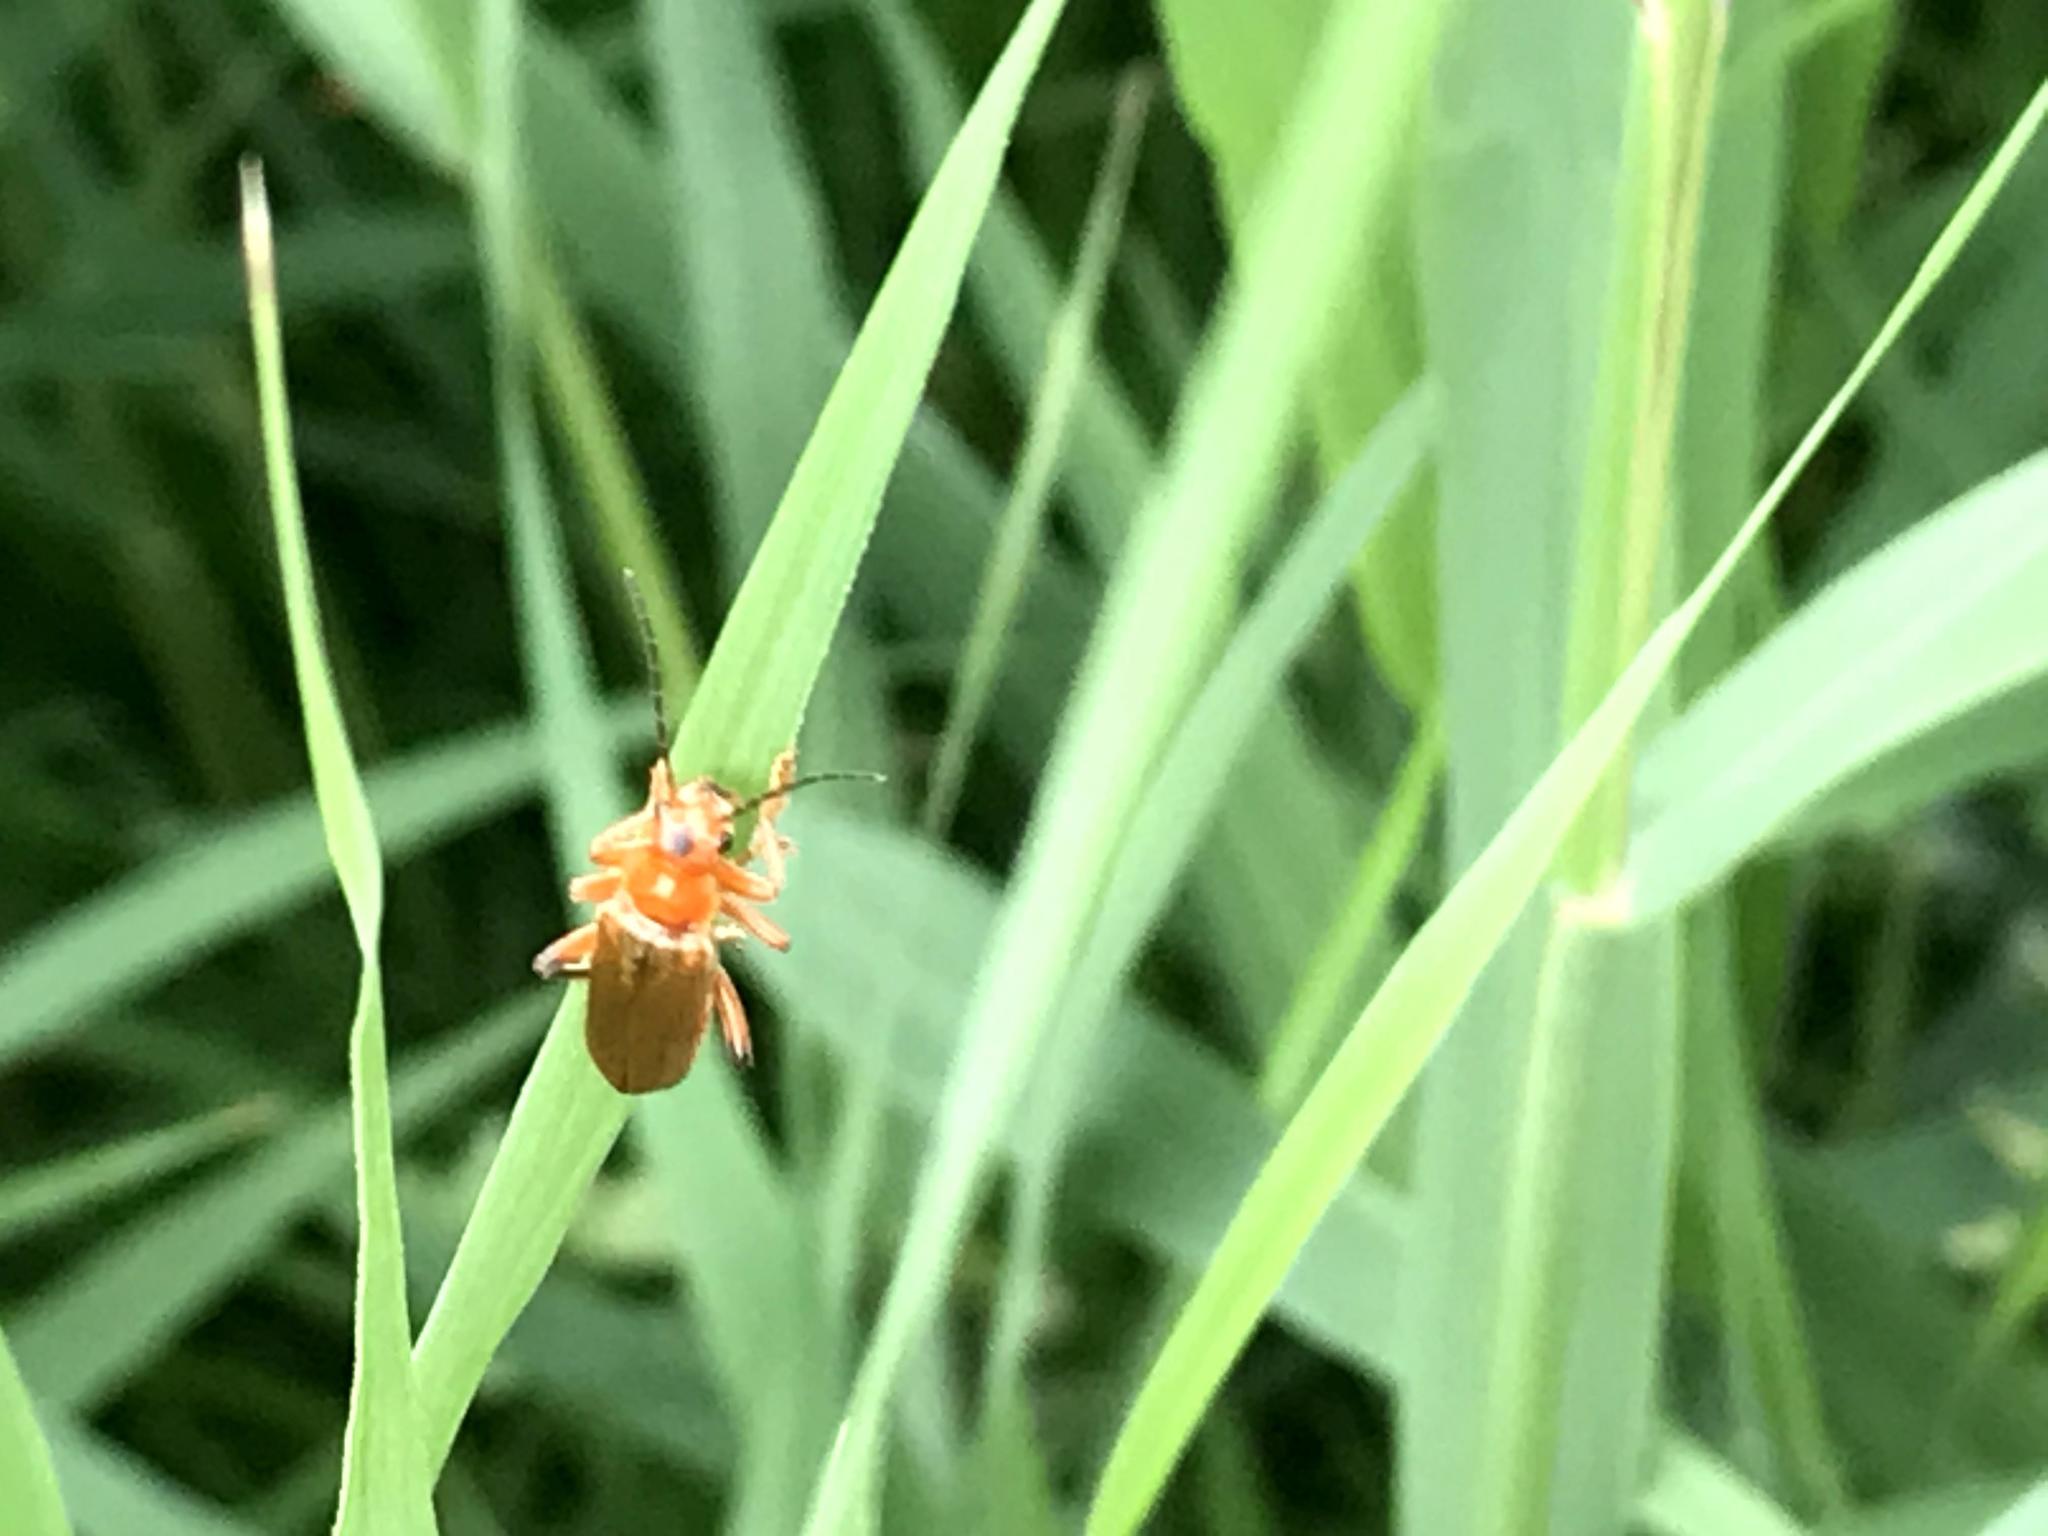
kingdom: Animalia
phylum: Arthropoda
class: Insecta
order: Coleoptera
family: Cantharidae
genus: Cantharis
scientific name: Cantharis livida
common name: Livid soldier beetle
